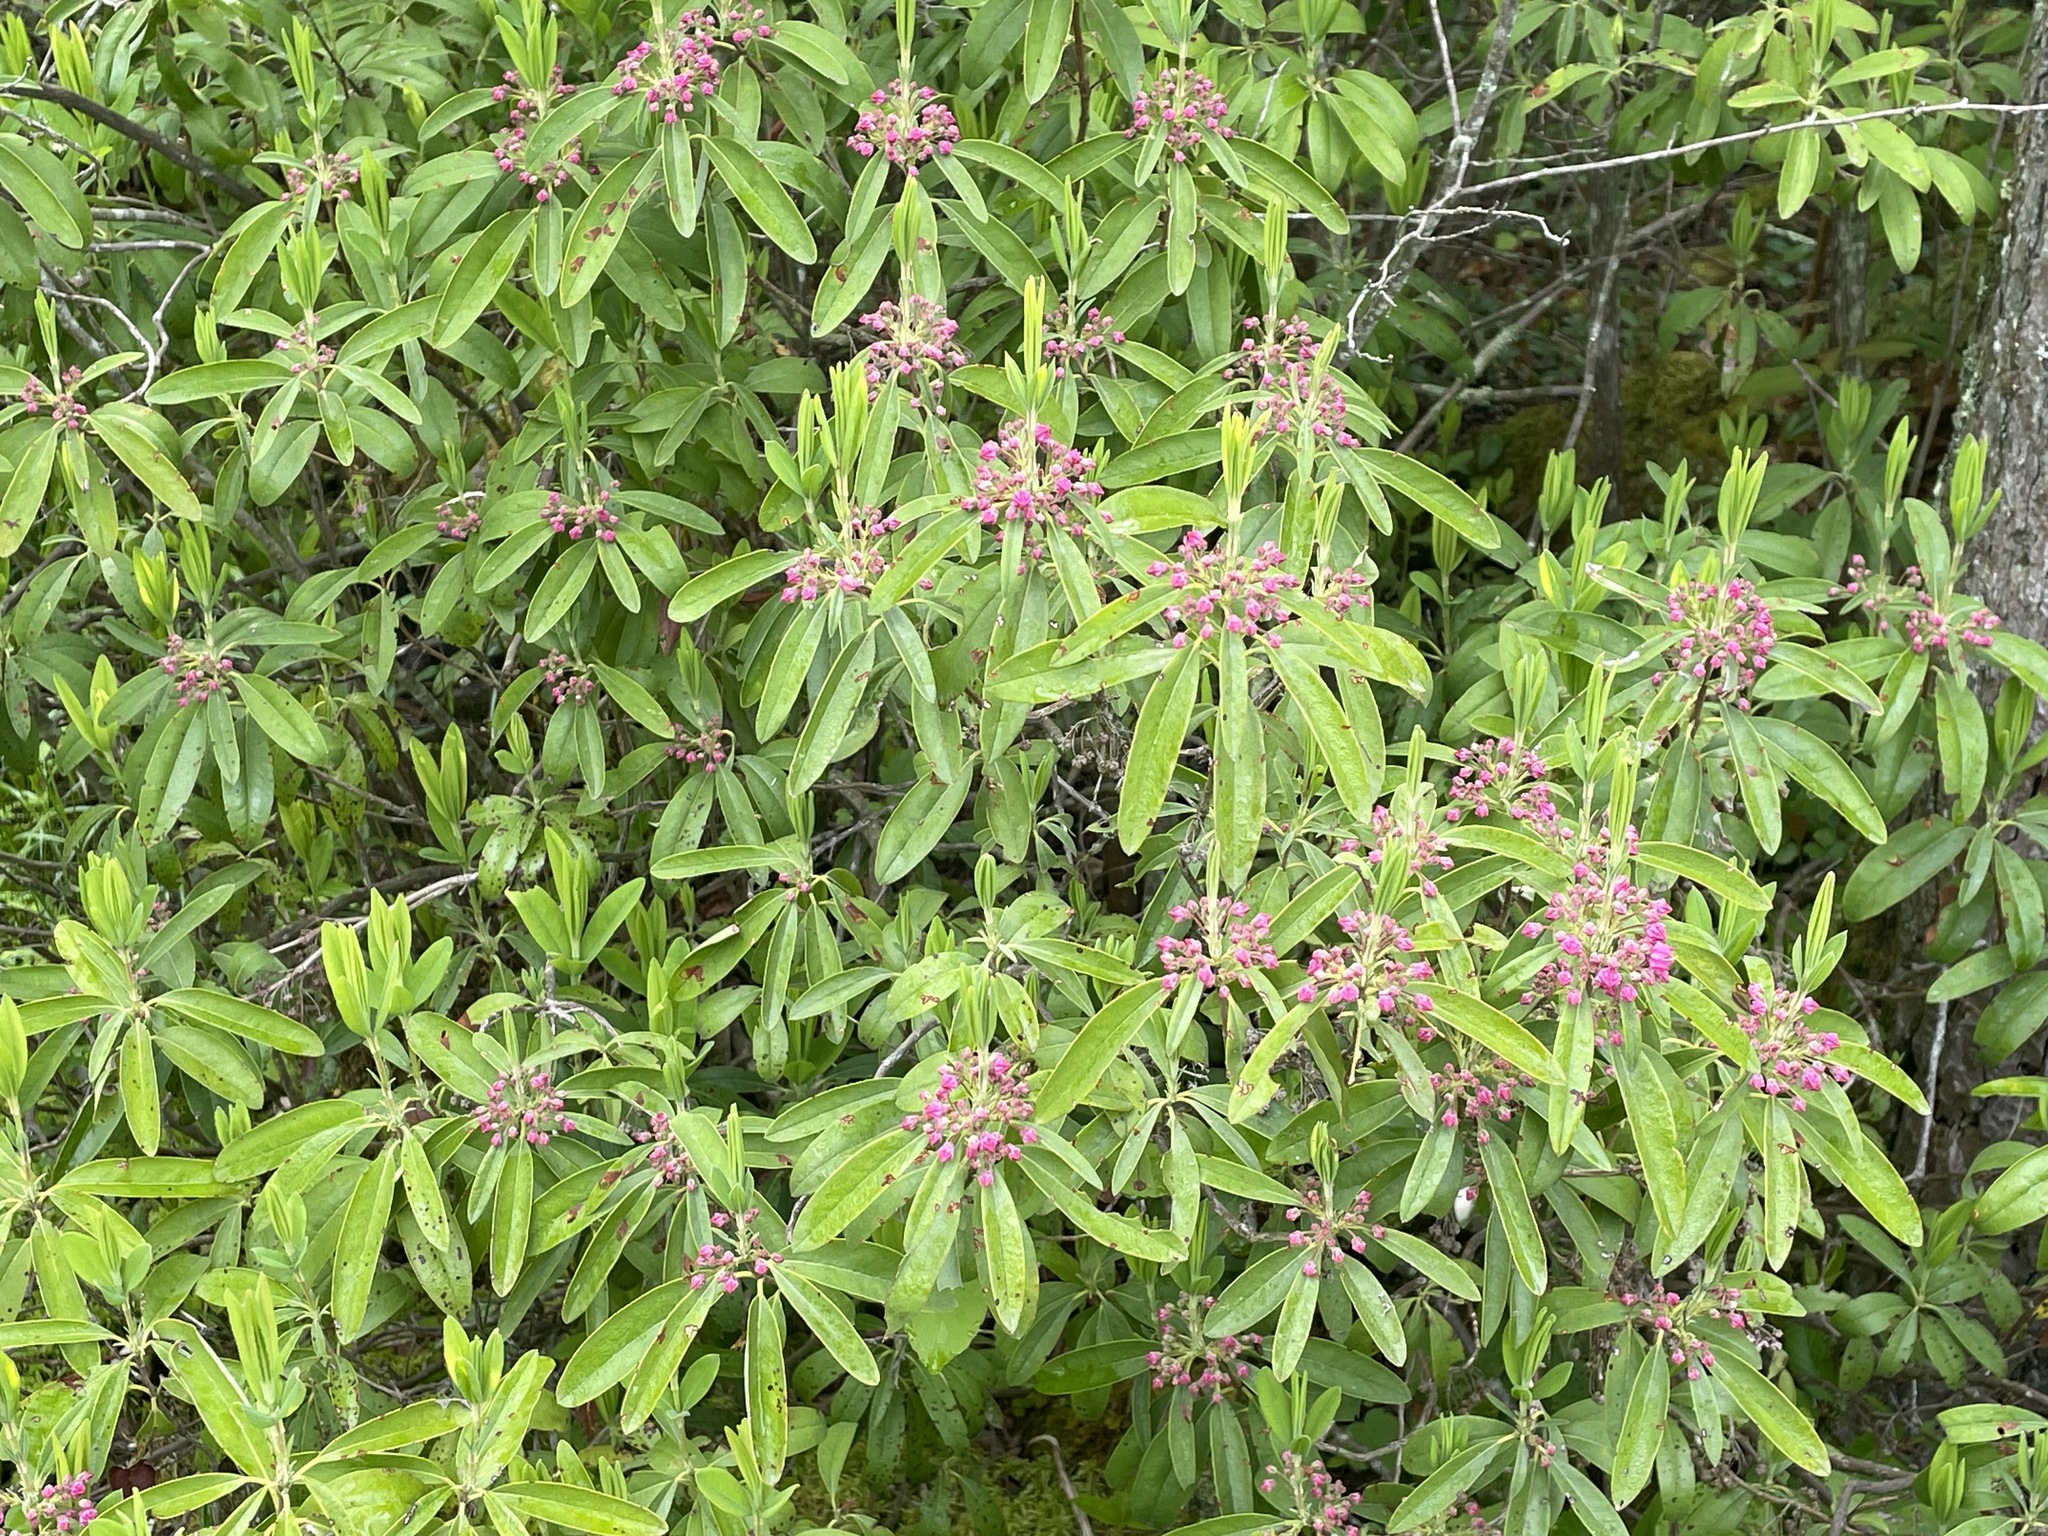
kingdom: Plantae
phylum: Tracheophyta
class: Magnoliopsida
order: Ericales
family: Ericaceae
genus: Kalmia
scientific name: Kalmia angustifolia
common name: Sheep-laurel
